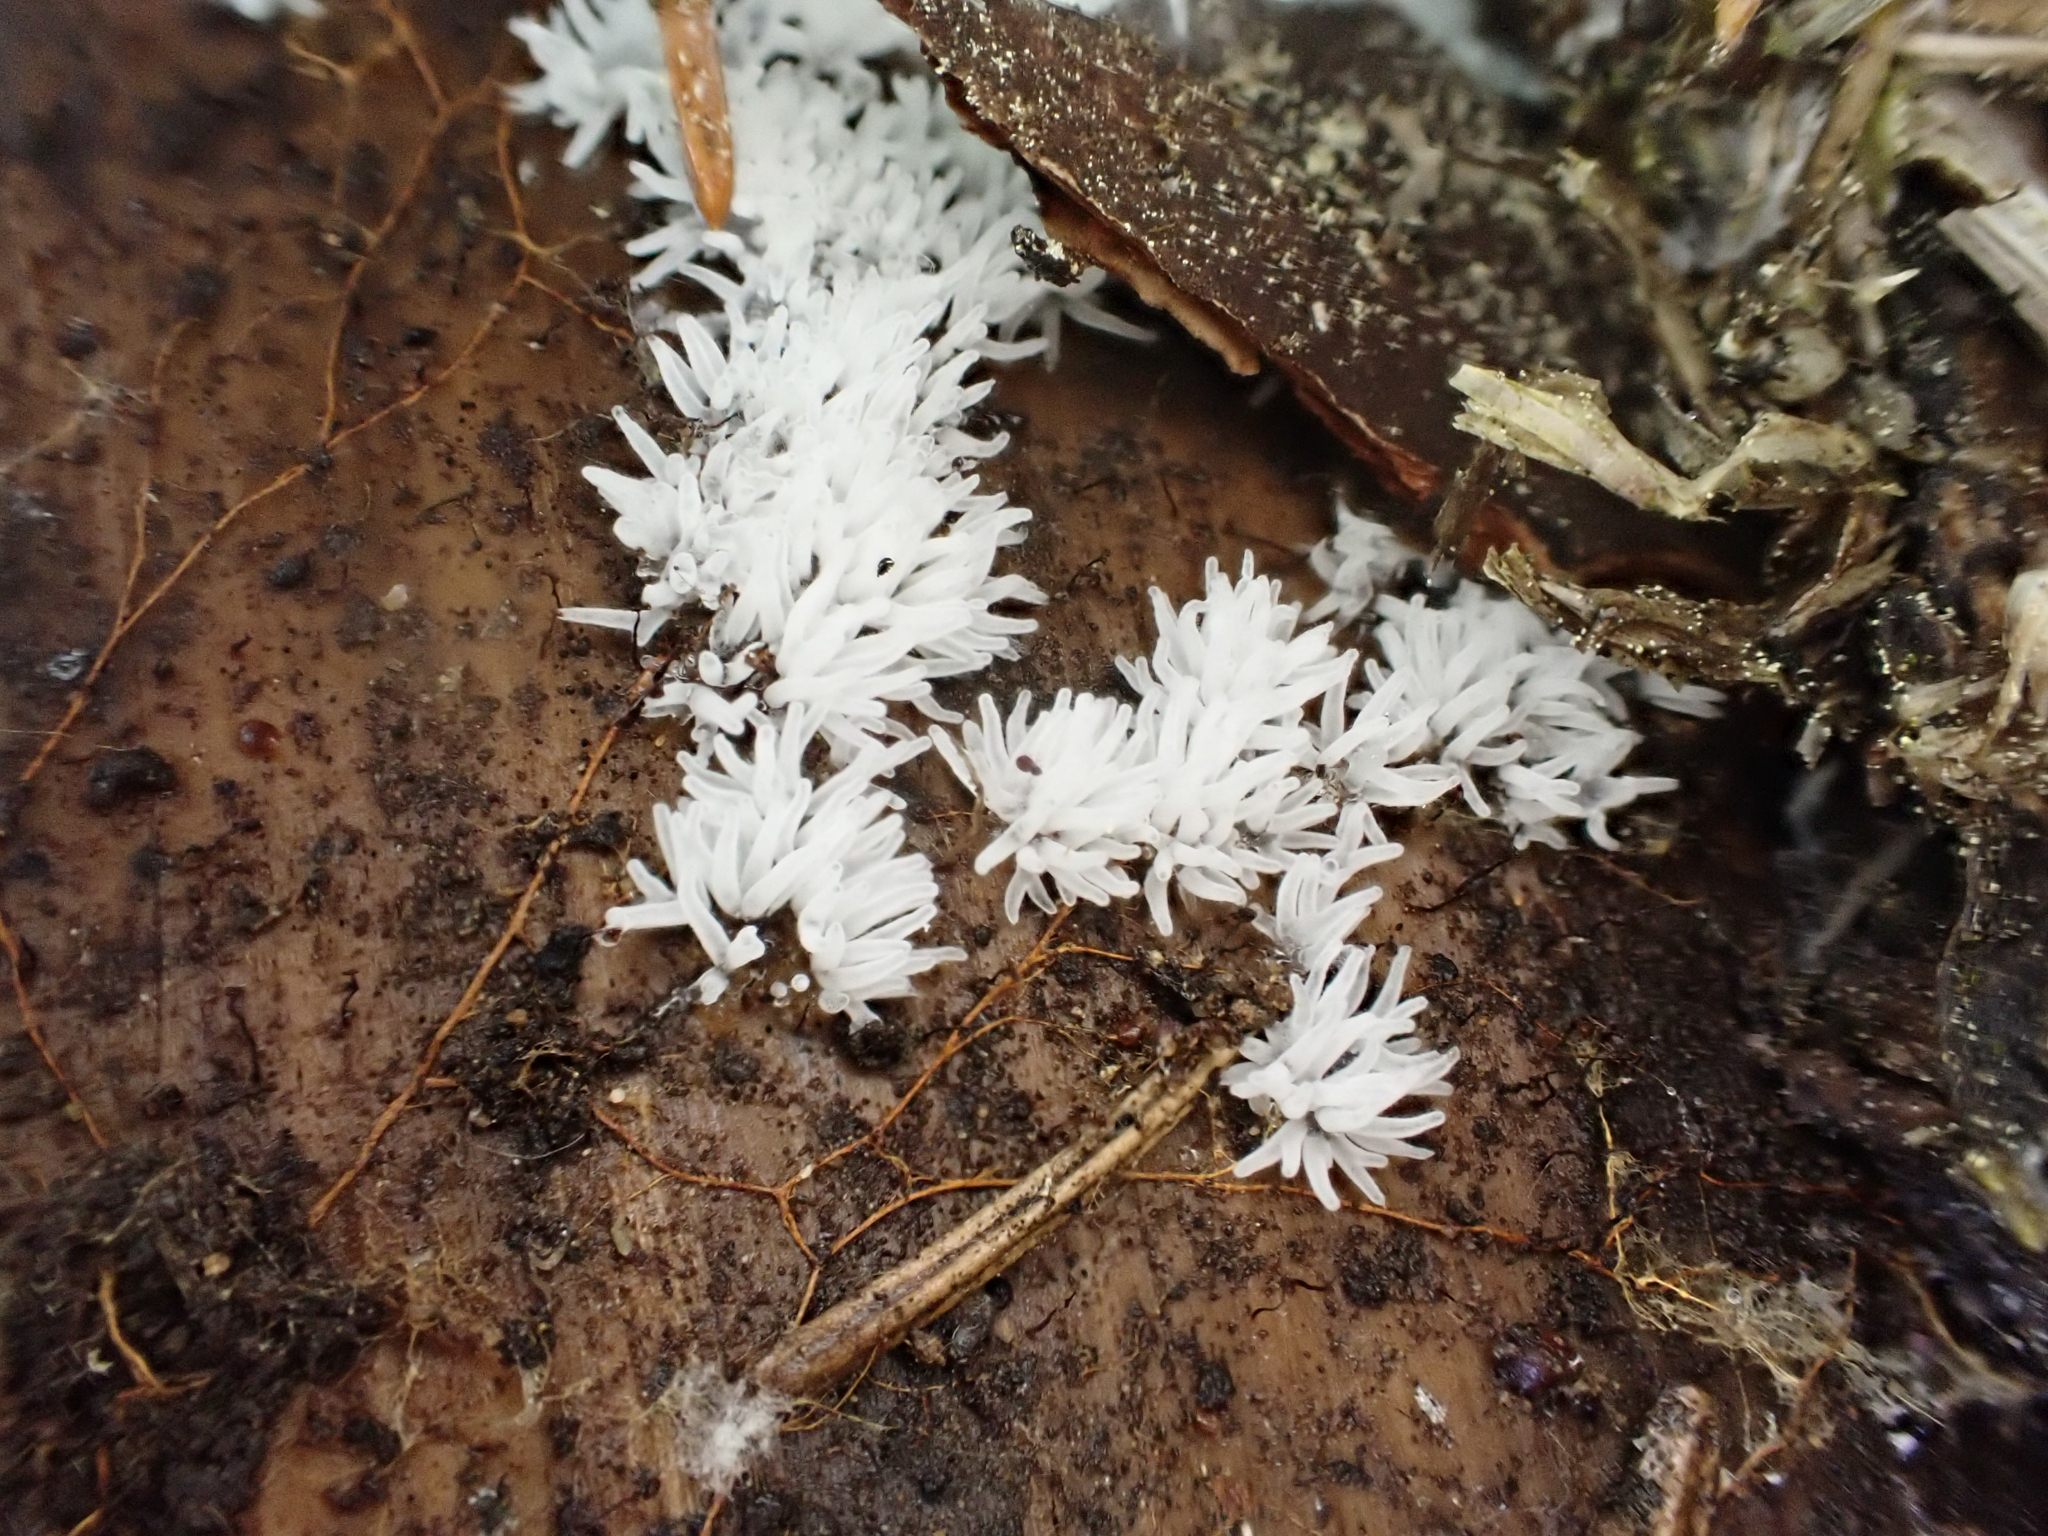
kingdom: Protozoa
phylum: Mycetozoa
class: Protosteliomycetes
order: Ceratiomyxales
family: Ceratiomyxaceae
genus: Ceratiomyxa
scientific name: Ceratiomyxa fruticulosa
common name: Honeycomb coral slime mold
